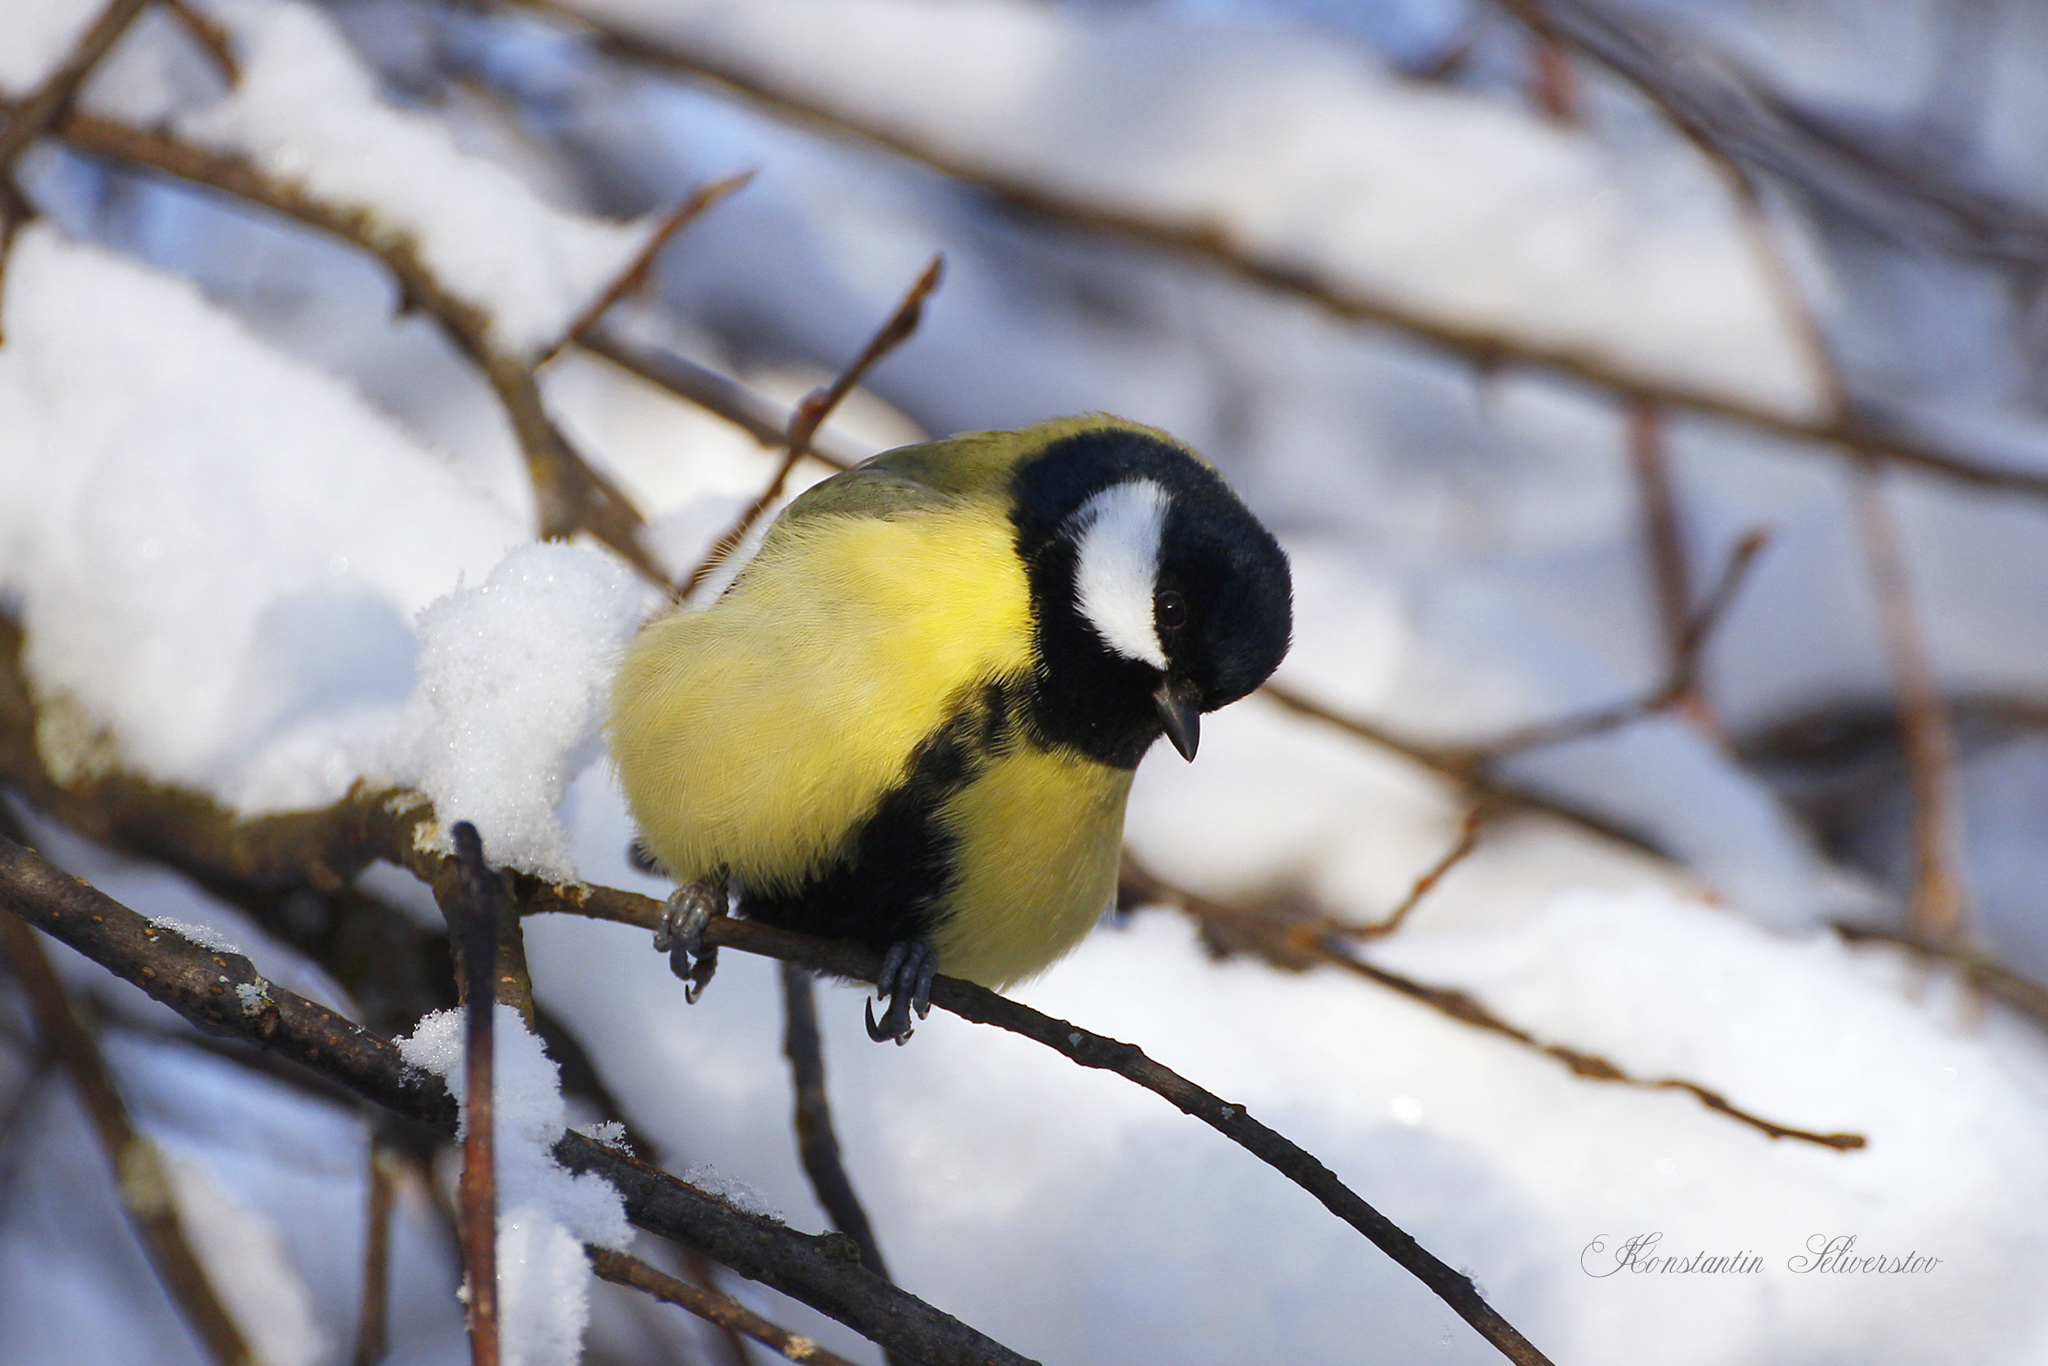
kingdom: Animalia
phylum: Chordata
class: Aves
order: Passeriformes
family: Paridae
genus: Parus
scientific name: Parus major
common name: Great tit
